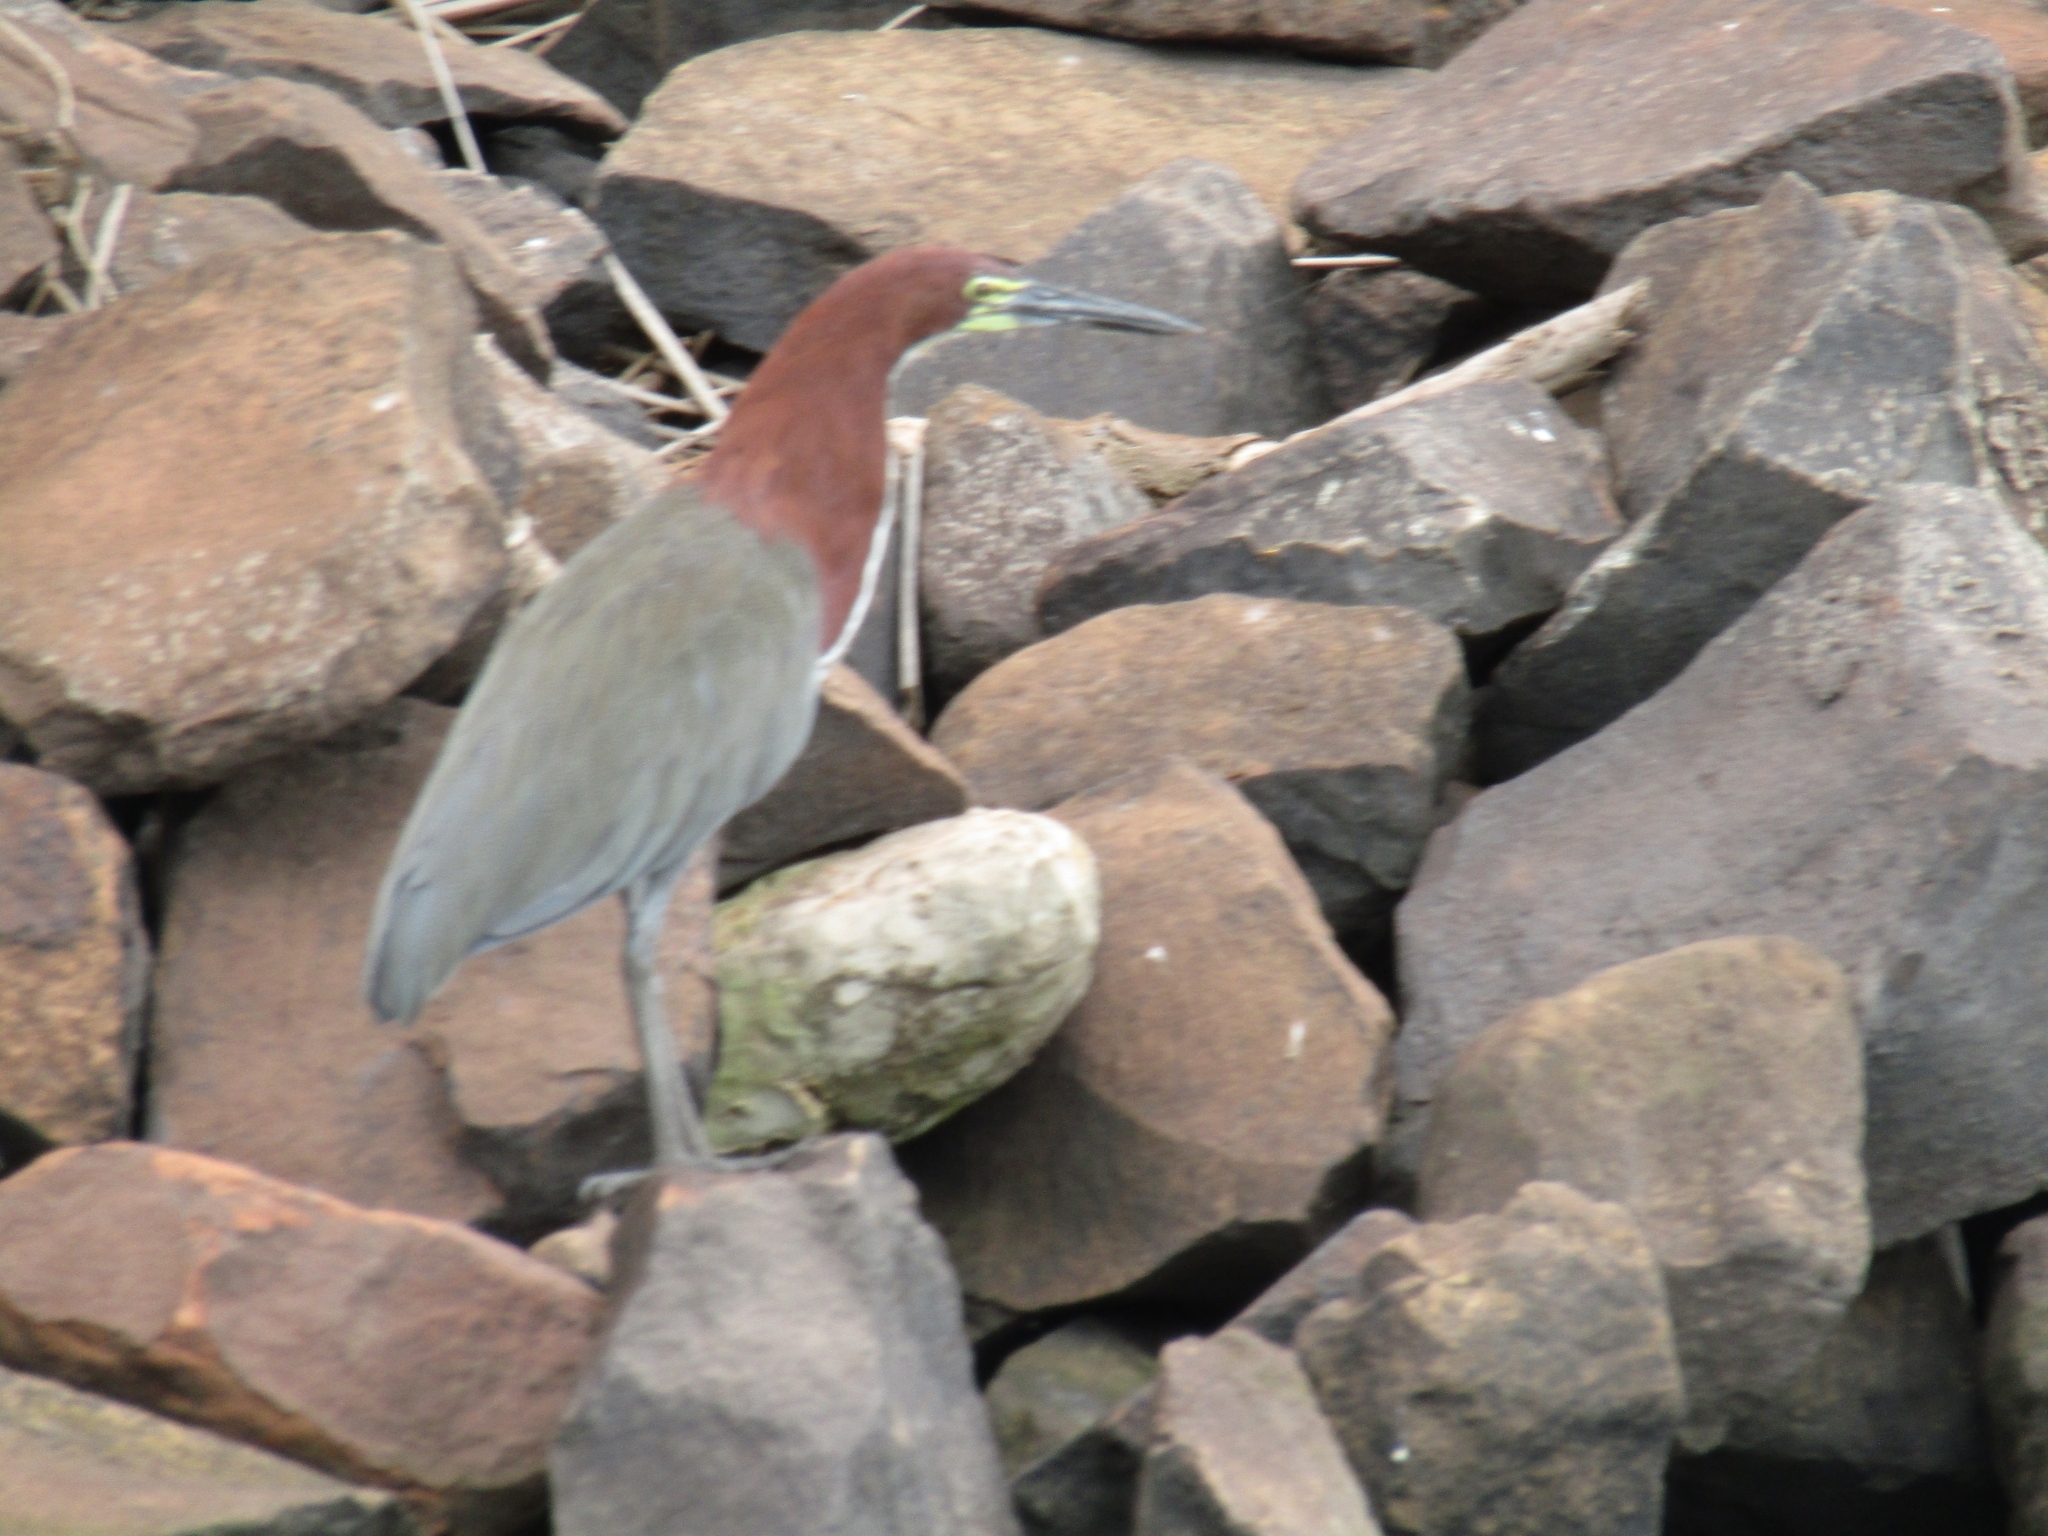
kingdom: Animalia
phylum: Chordata
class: Aves
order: Pelecaniformes
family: Ardeidae
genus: Tigrisoma
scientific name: Tigrisoma lineatum
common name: Rufescent tiger-heron
